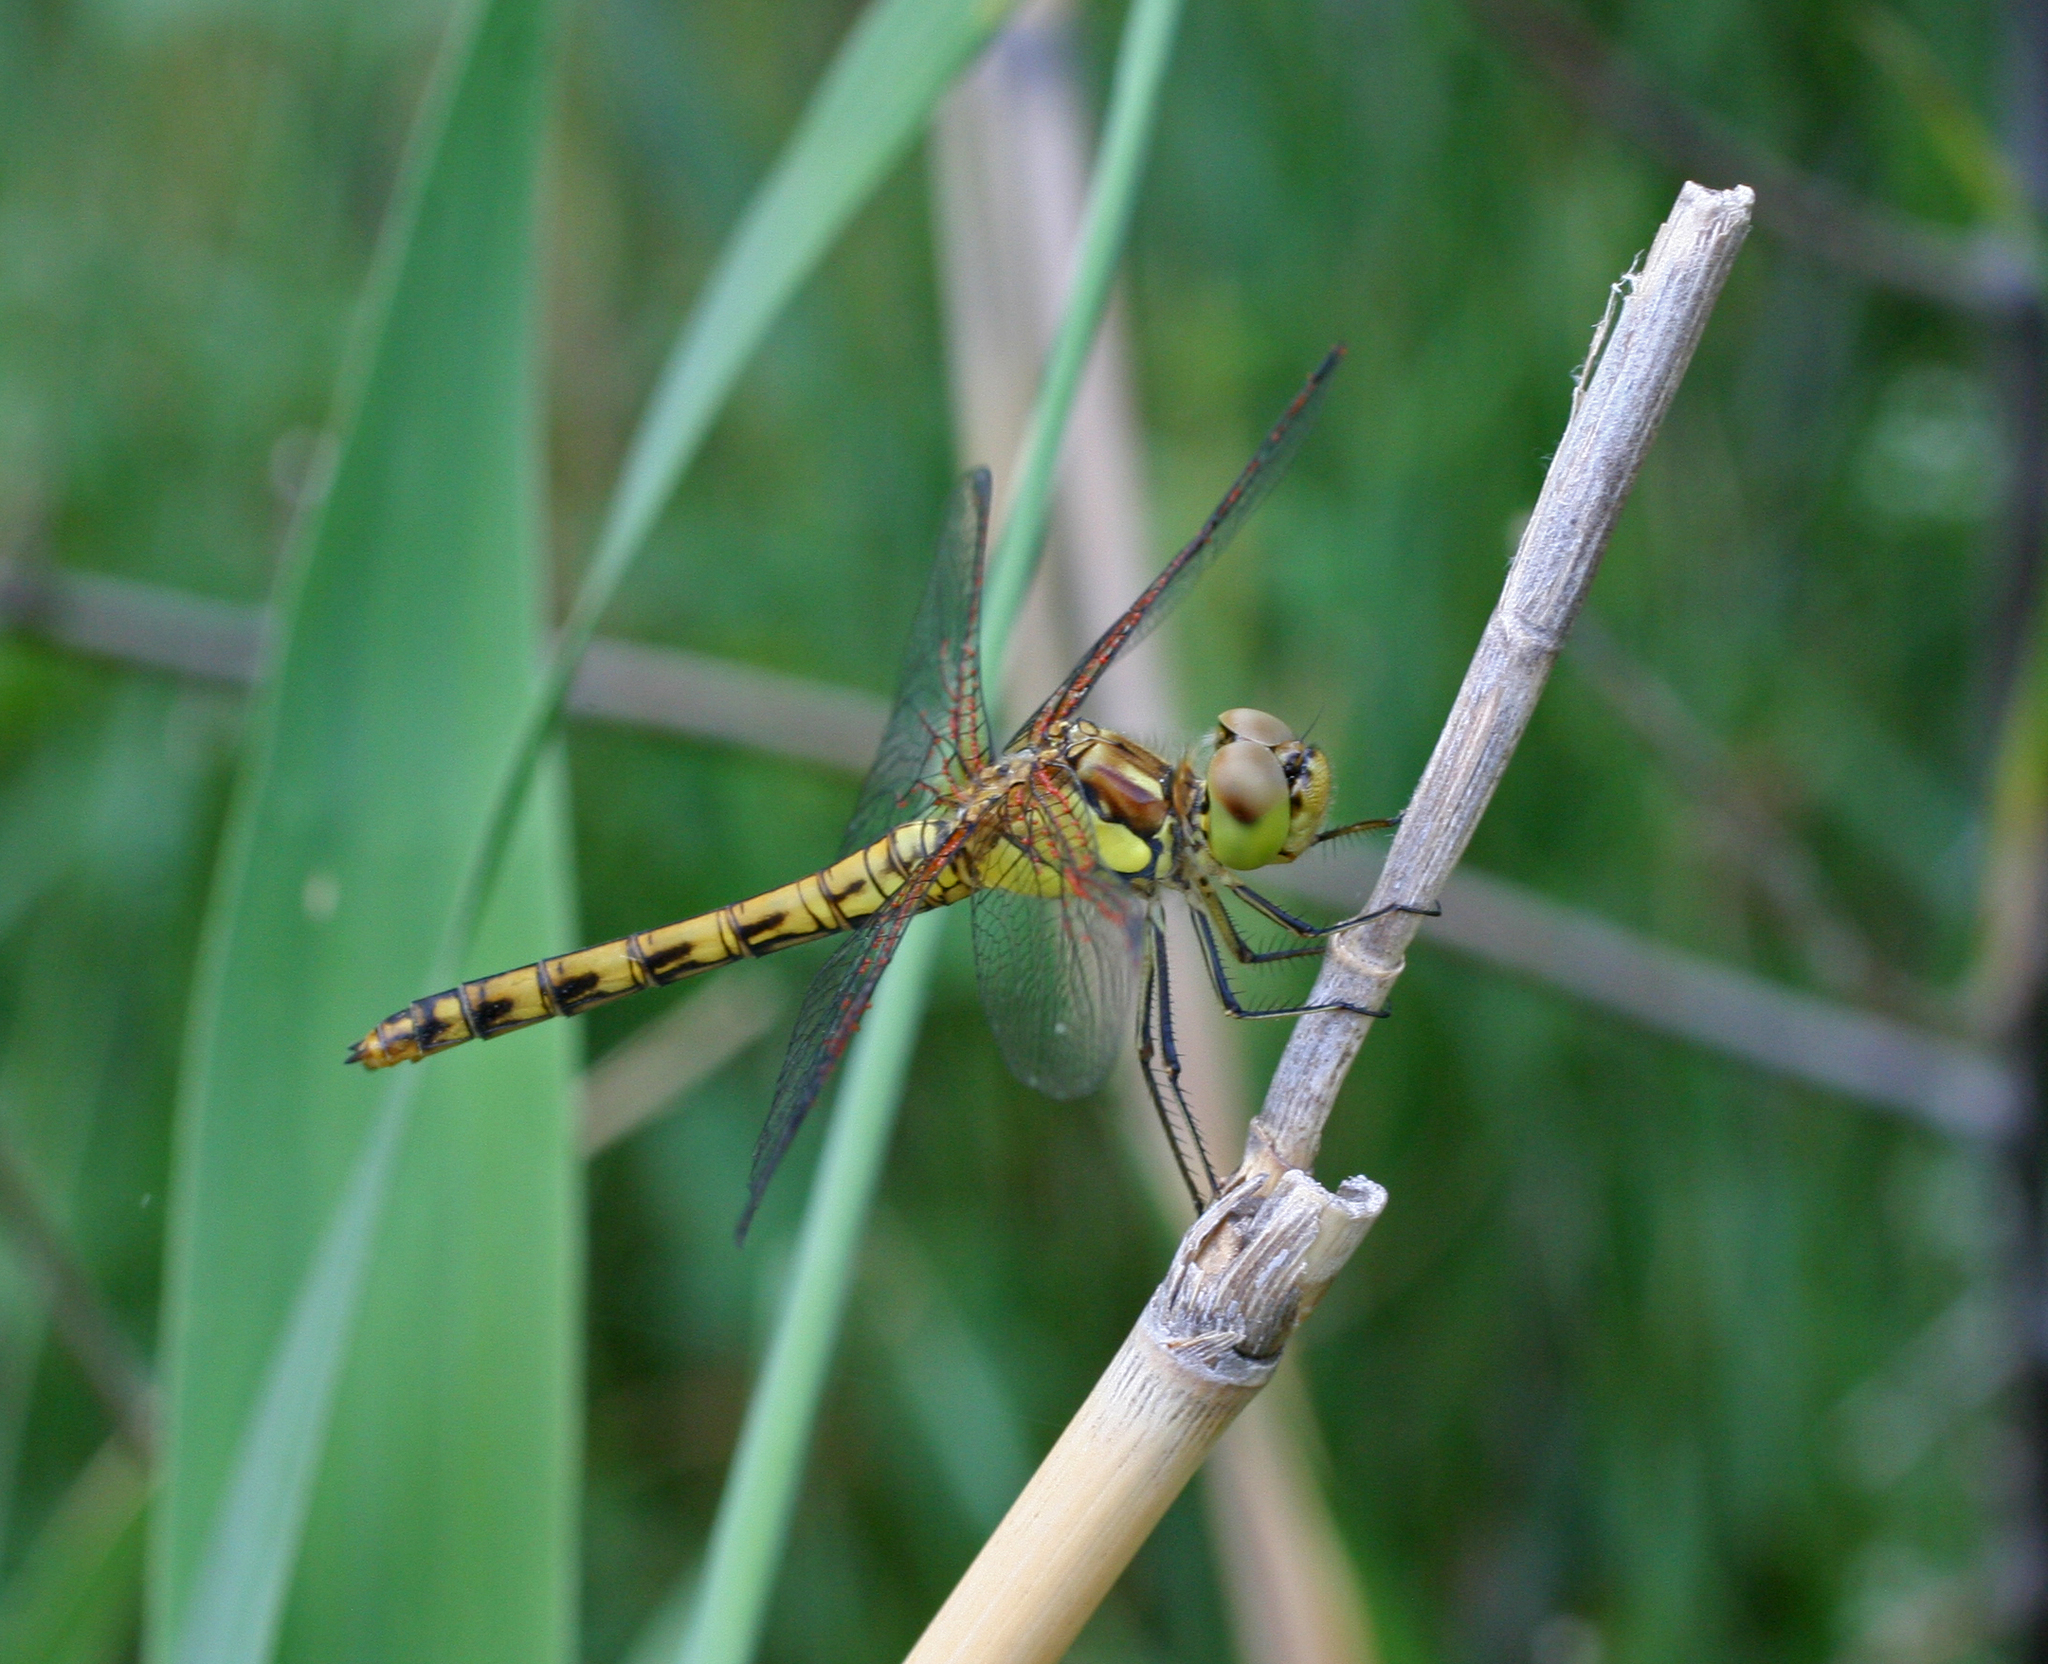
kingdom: Animalia
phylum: Arthropoda
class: Insecta
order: Odonata
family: Libellulidae
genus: Sympetrum
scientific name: Sympetrum striolatum
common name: Common darter
